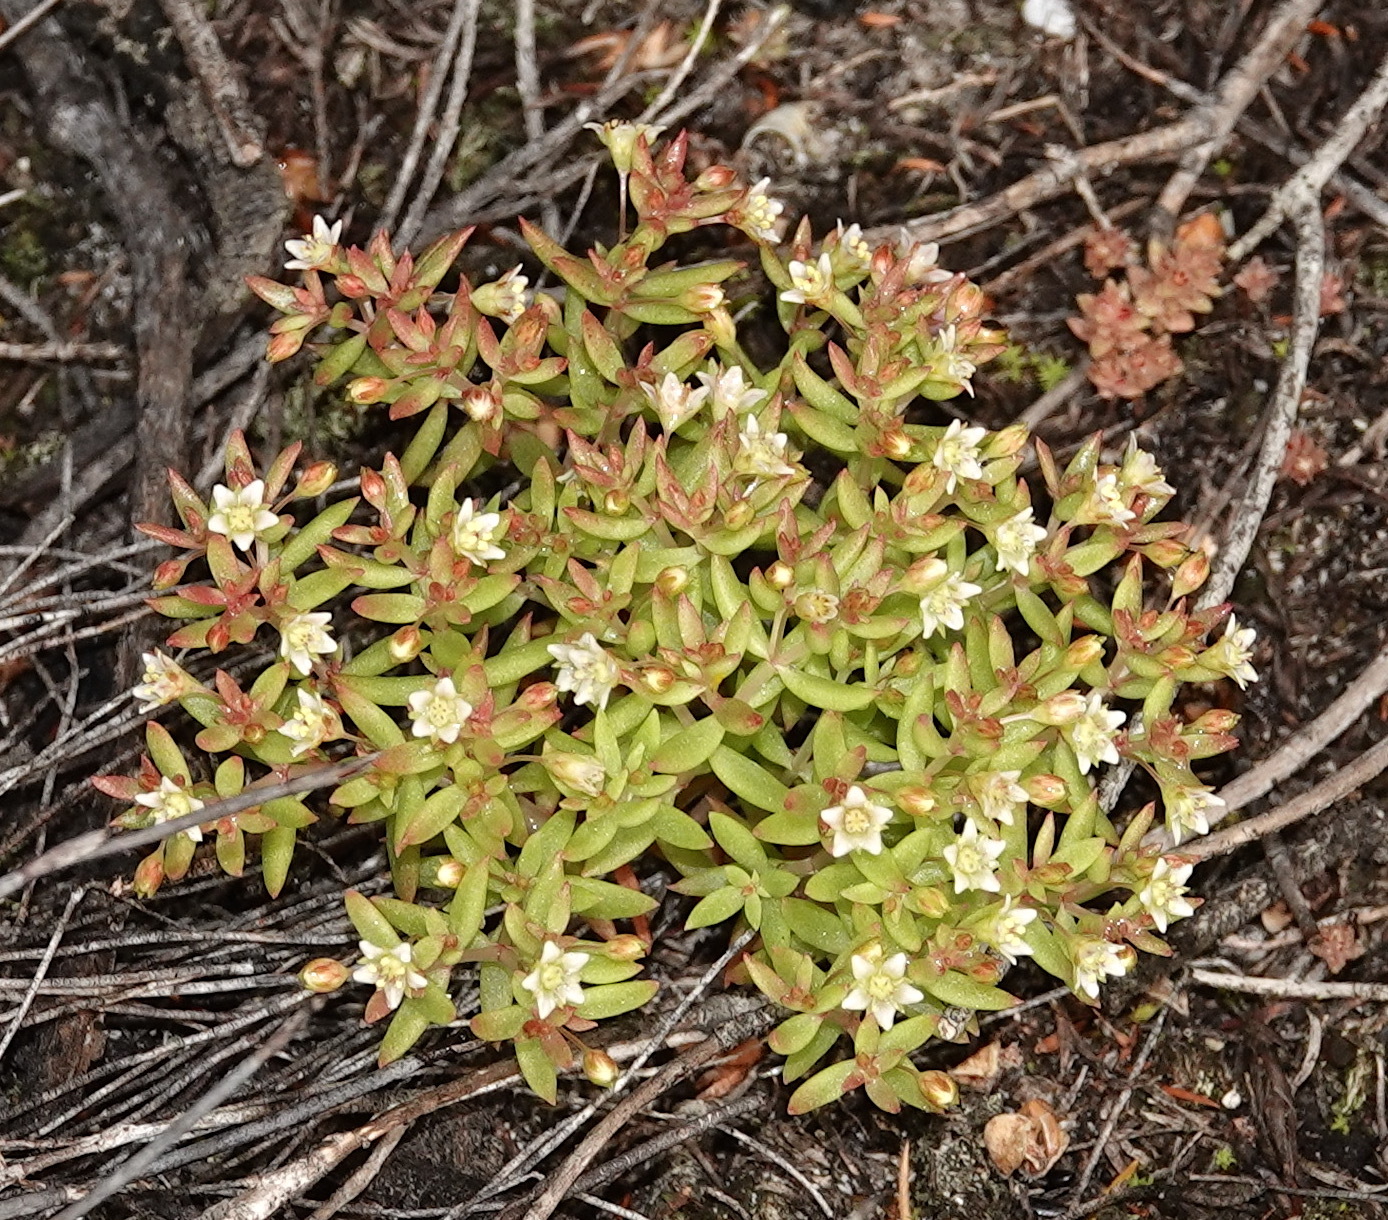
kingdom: Plantae
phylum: Tracheophyta
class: Magnoliopsida
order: Saxifragales
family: Crassulaceae
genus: Crassula
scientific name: Crassula expansa
